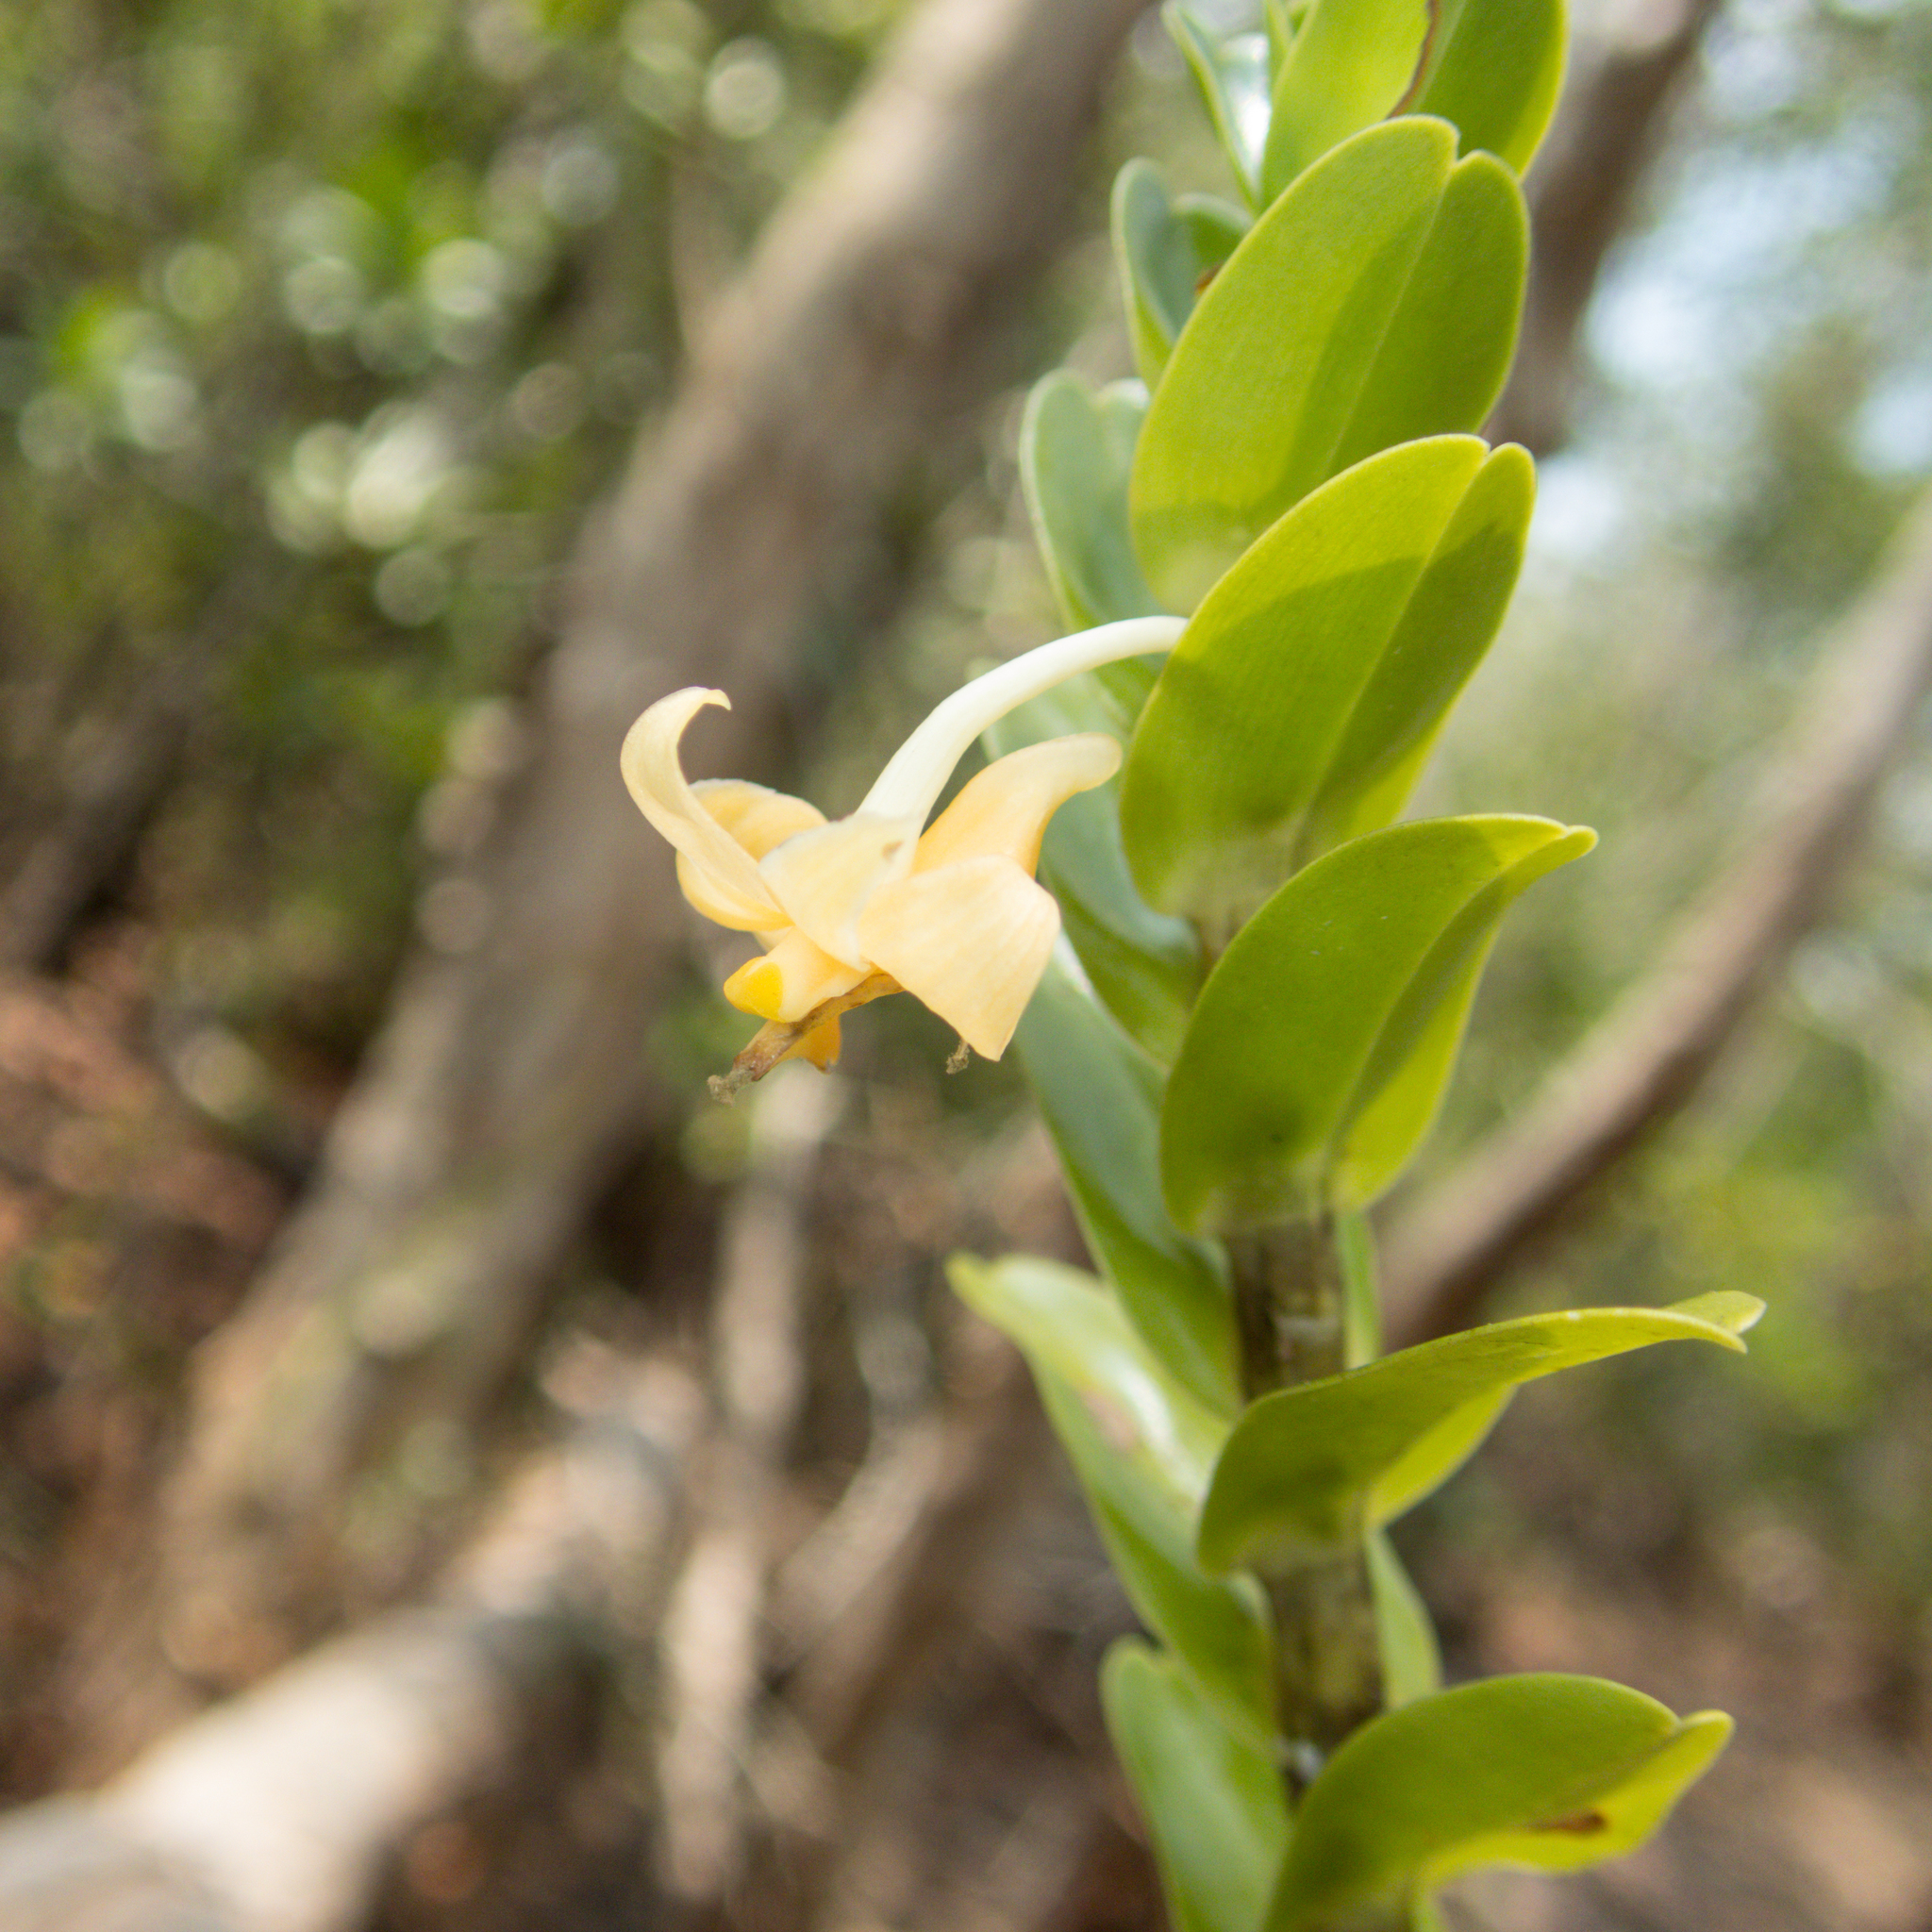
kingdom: Plantae
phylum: Tracheophyta
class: Liliopsida
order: Asparagales
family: Orchidaceae
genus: Dendrobium
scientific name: Dendrobium ellipsophyllum
